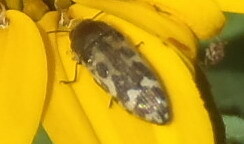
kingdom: Animalia
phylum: Arthropoda
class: Insecta
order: Coleoptera
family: Buprestidae
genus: Acmaeodera
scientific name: Acmaeodera mixta
